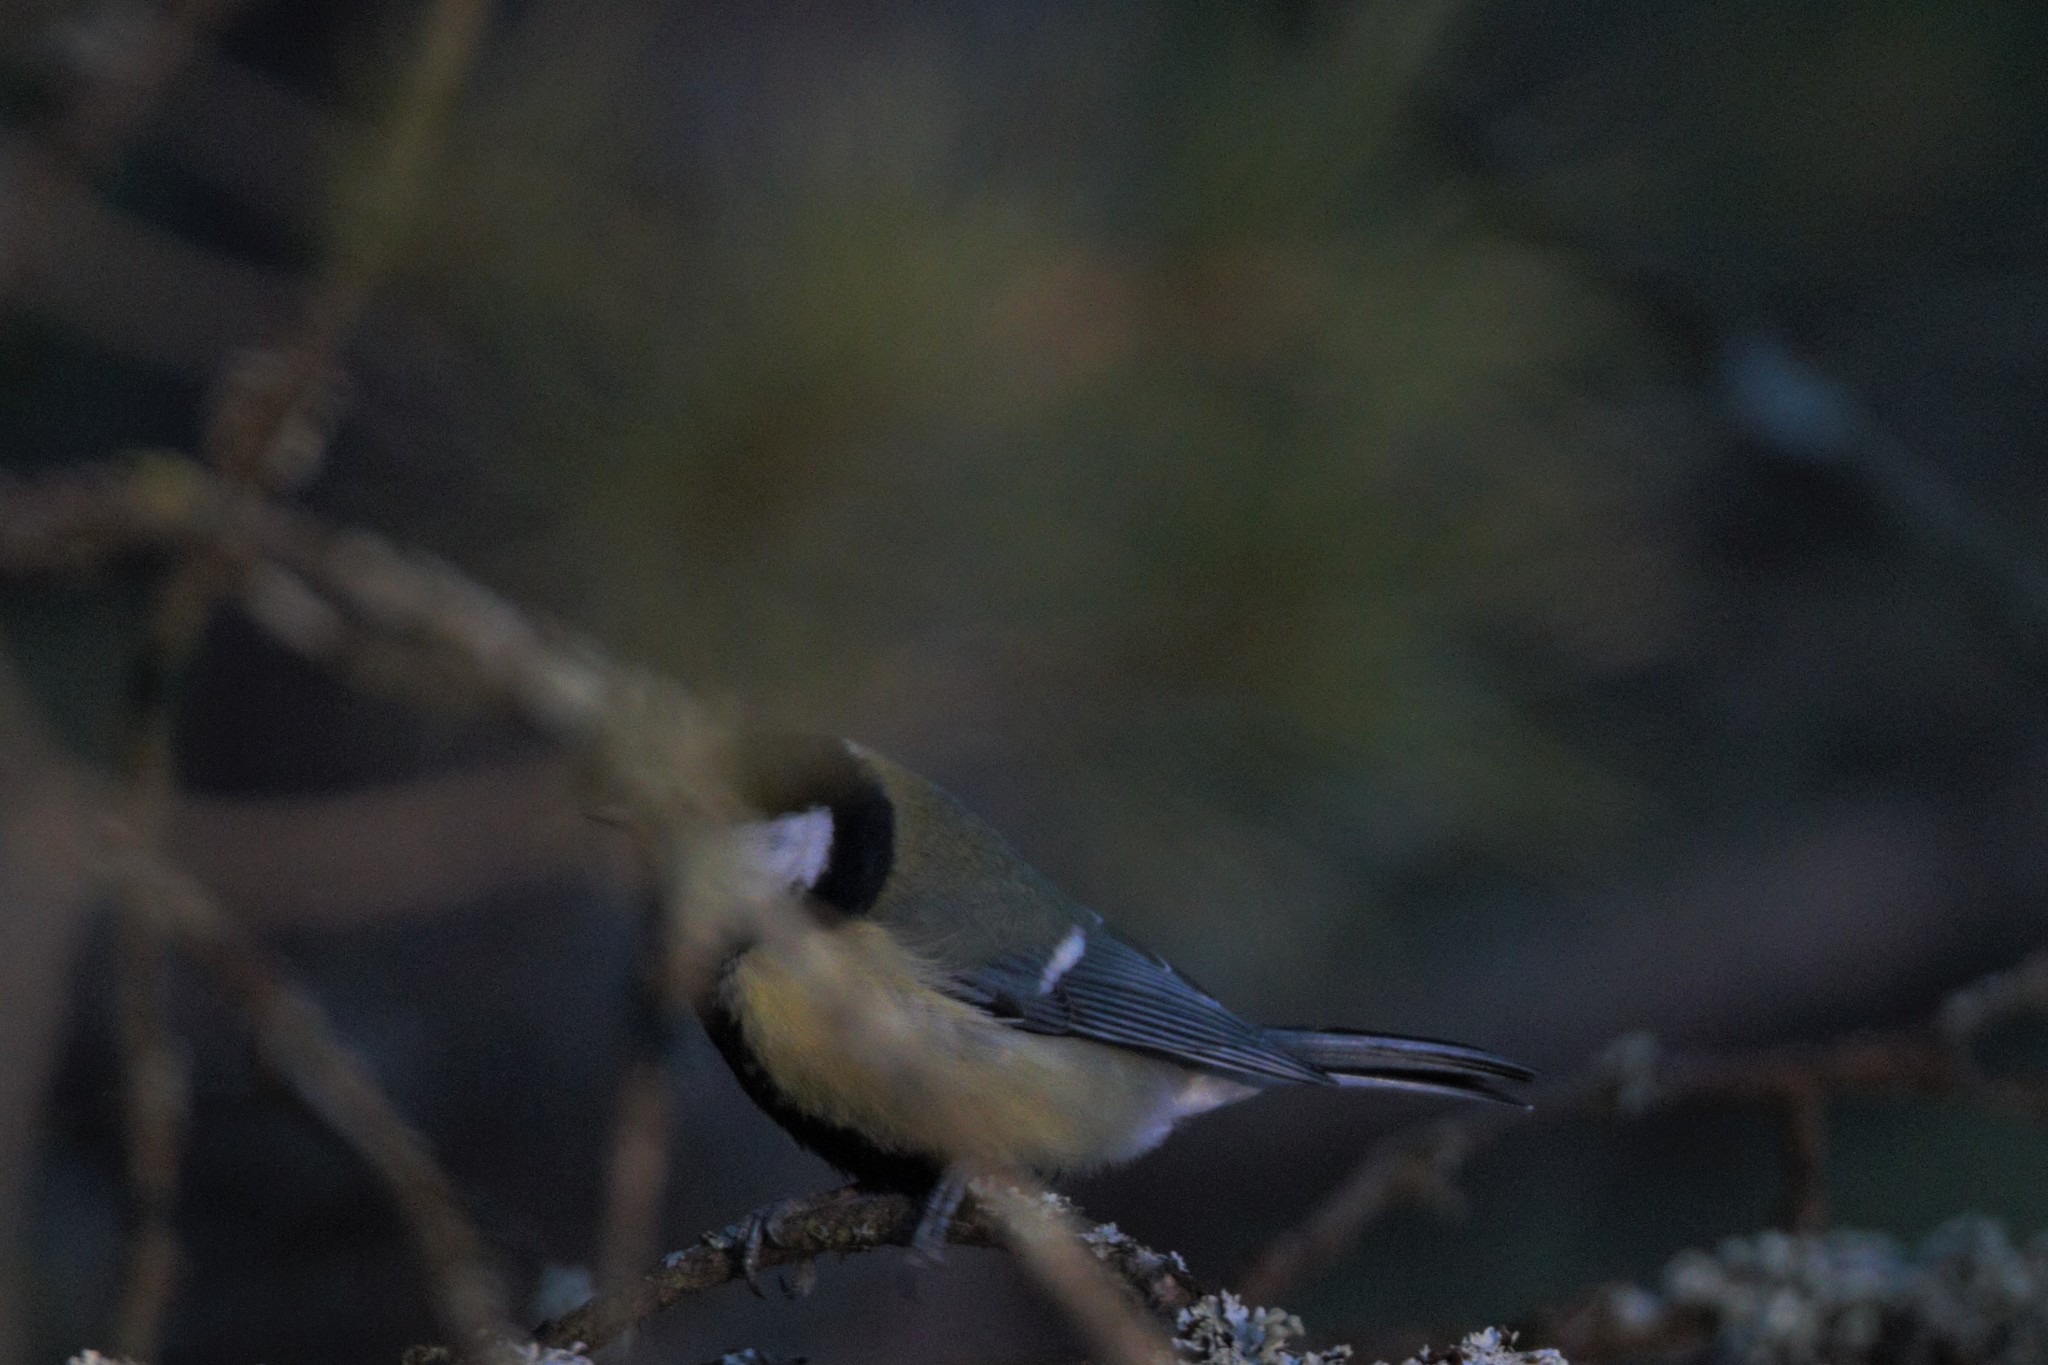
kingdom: Animalia
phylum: Chordata
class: Aves
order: Passeriformes
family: Paridae
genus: Parus
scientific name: Parus major
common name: Great tit
